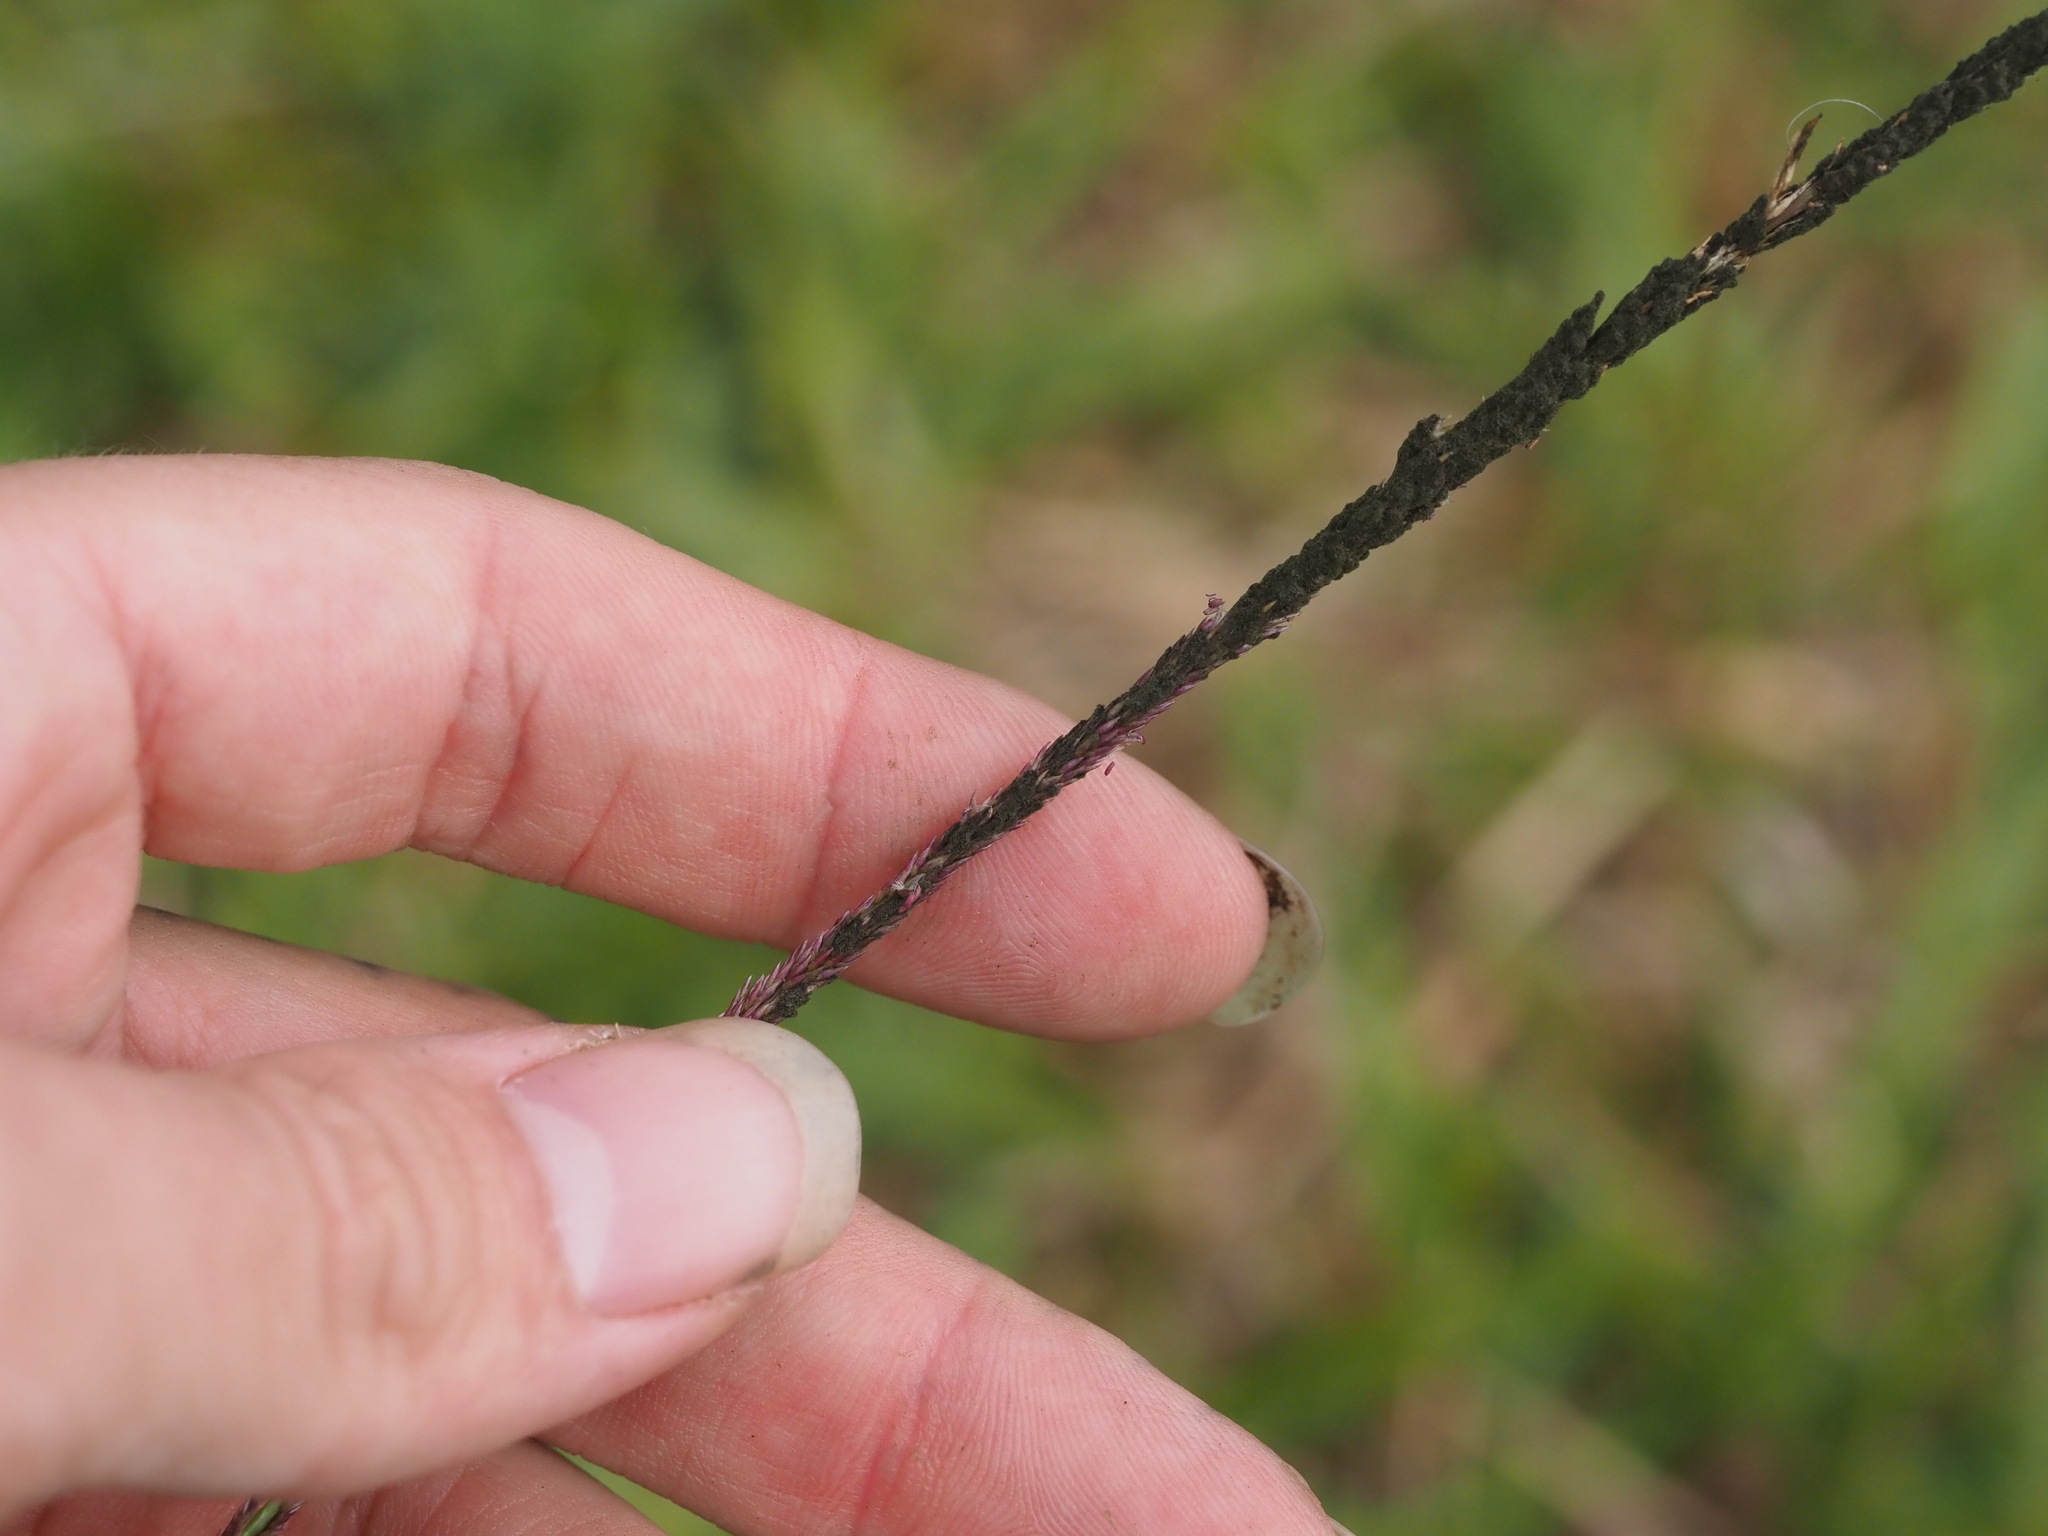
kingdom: Plantae
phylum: Tracheophyta
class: Liliopsida
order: Poales
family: Poaceae
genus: Sporobolus
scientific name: Sporobolus africanus
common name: African dropseed
